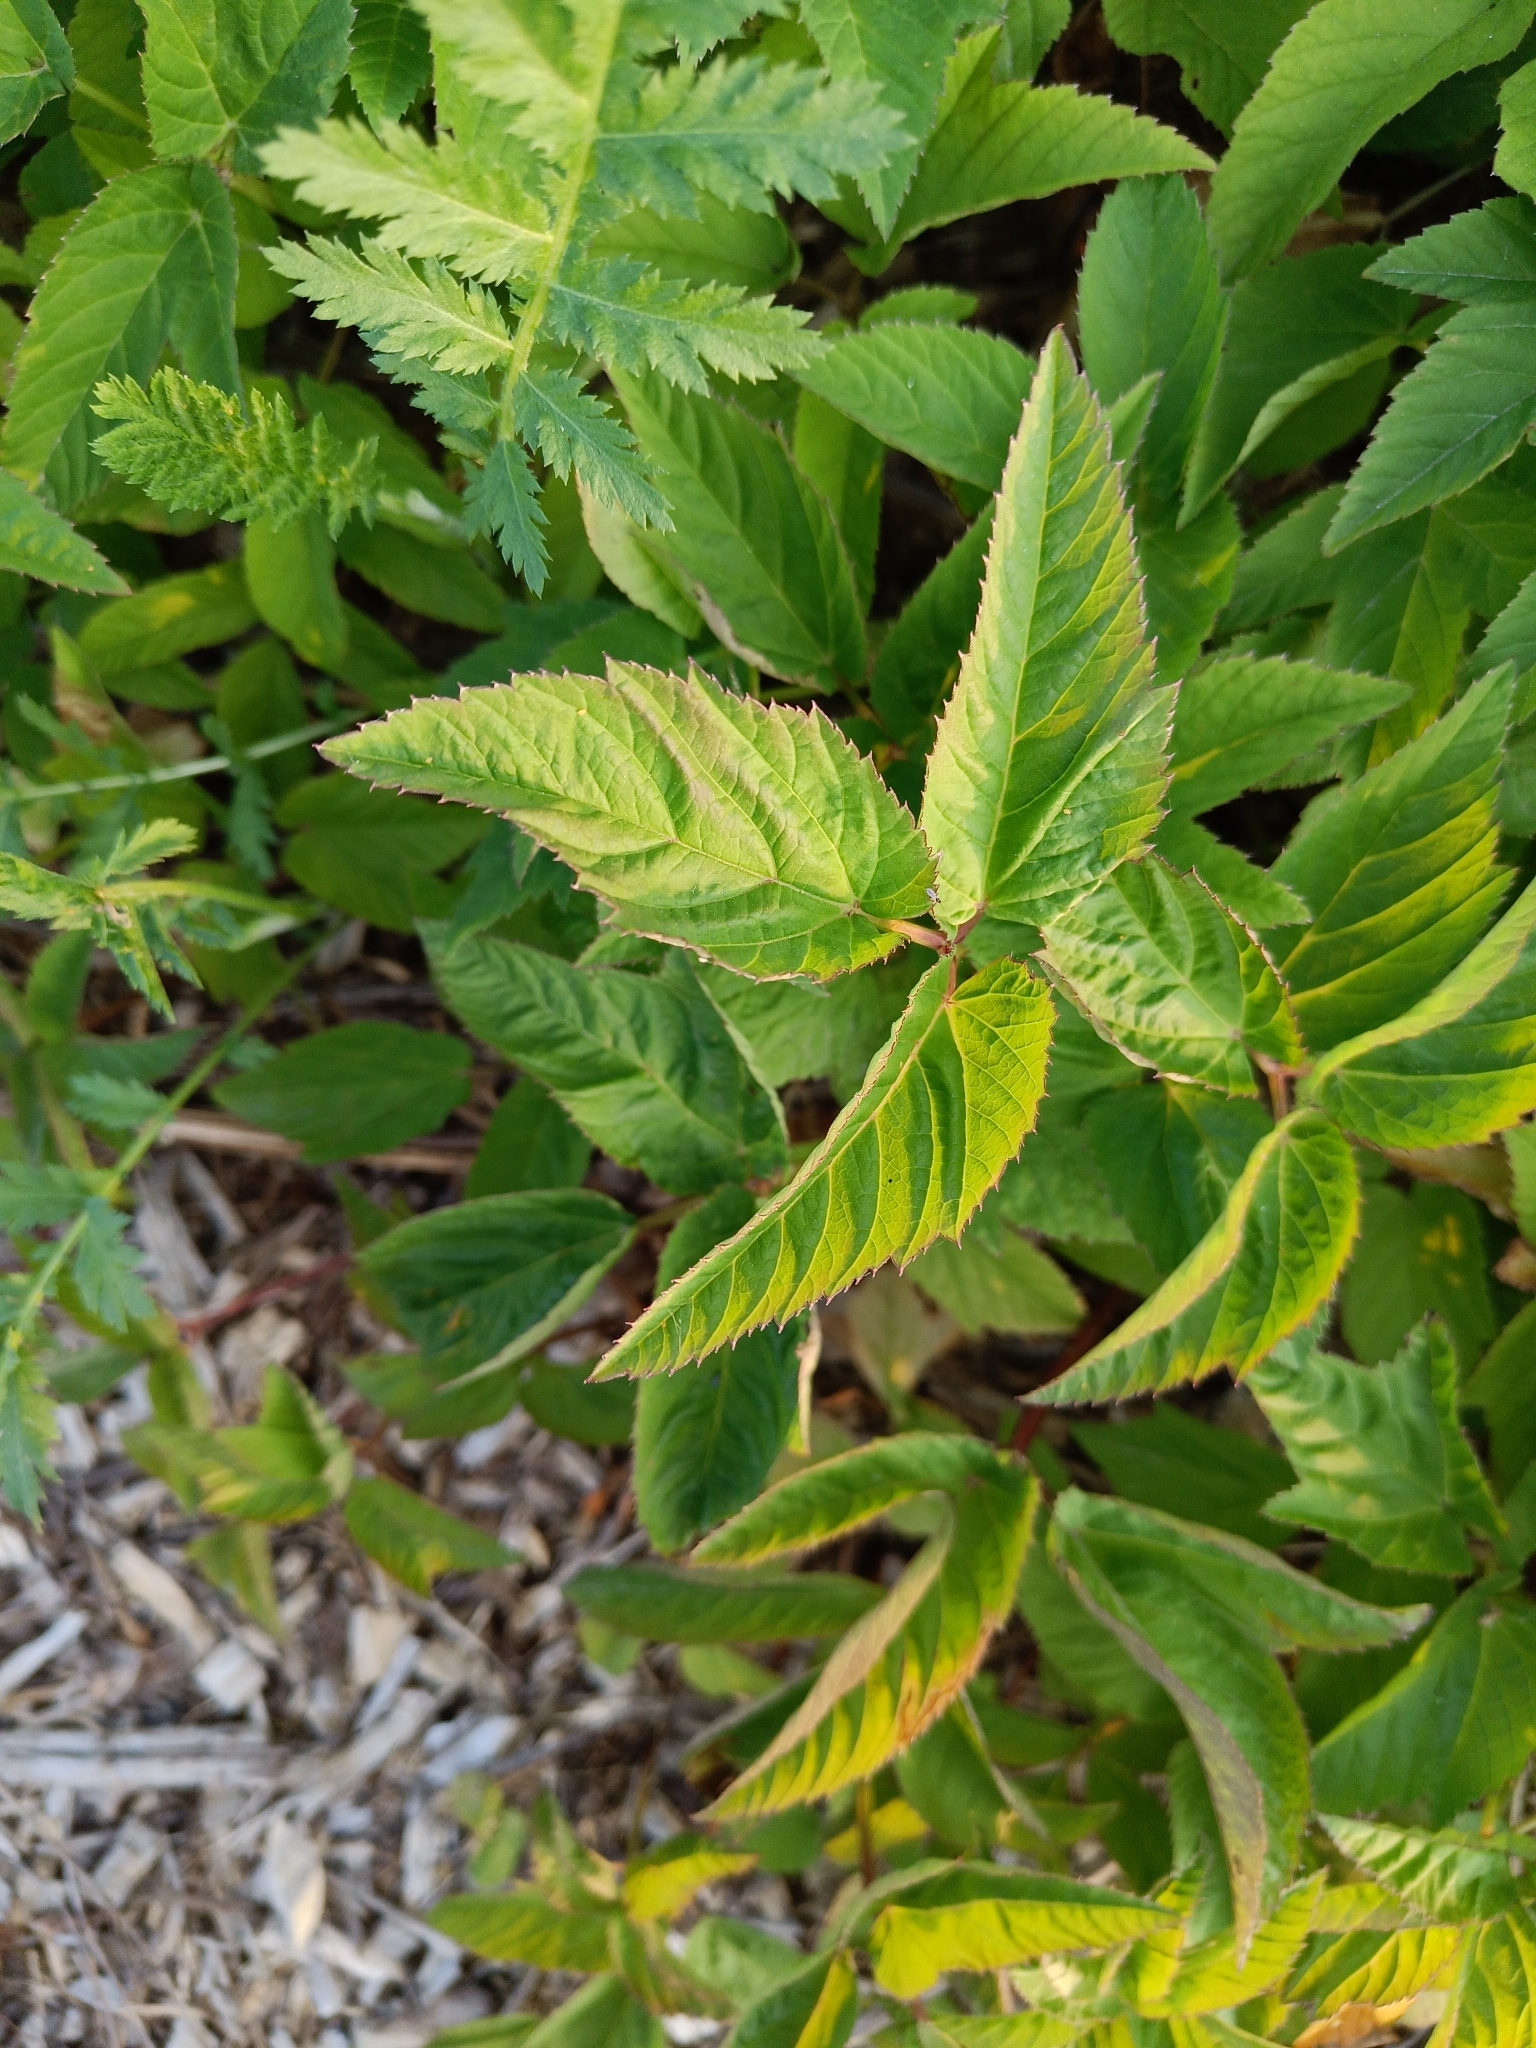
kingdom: Plantae
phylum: Tracheophyta
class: Magnoliopsida
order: Apiales
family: Apiaceae
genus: Aegopodium
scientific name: Aegopodium podagraria
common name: Ground-elder
